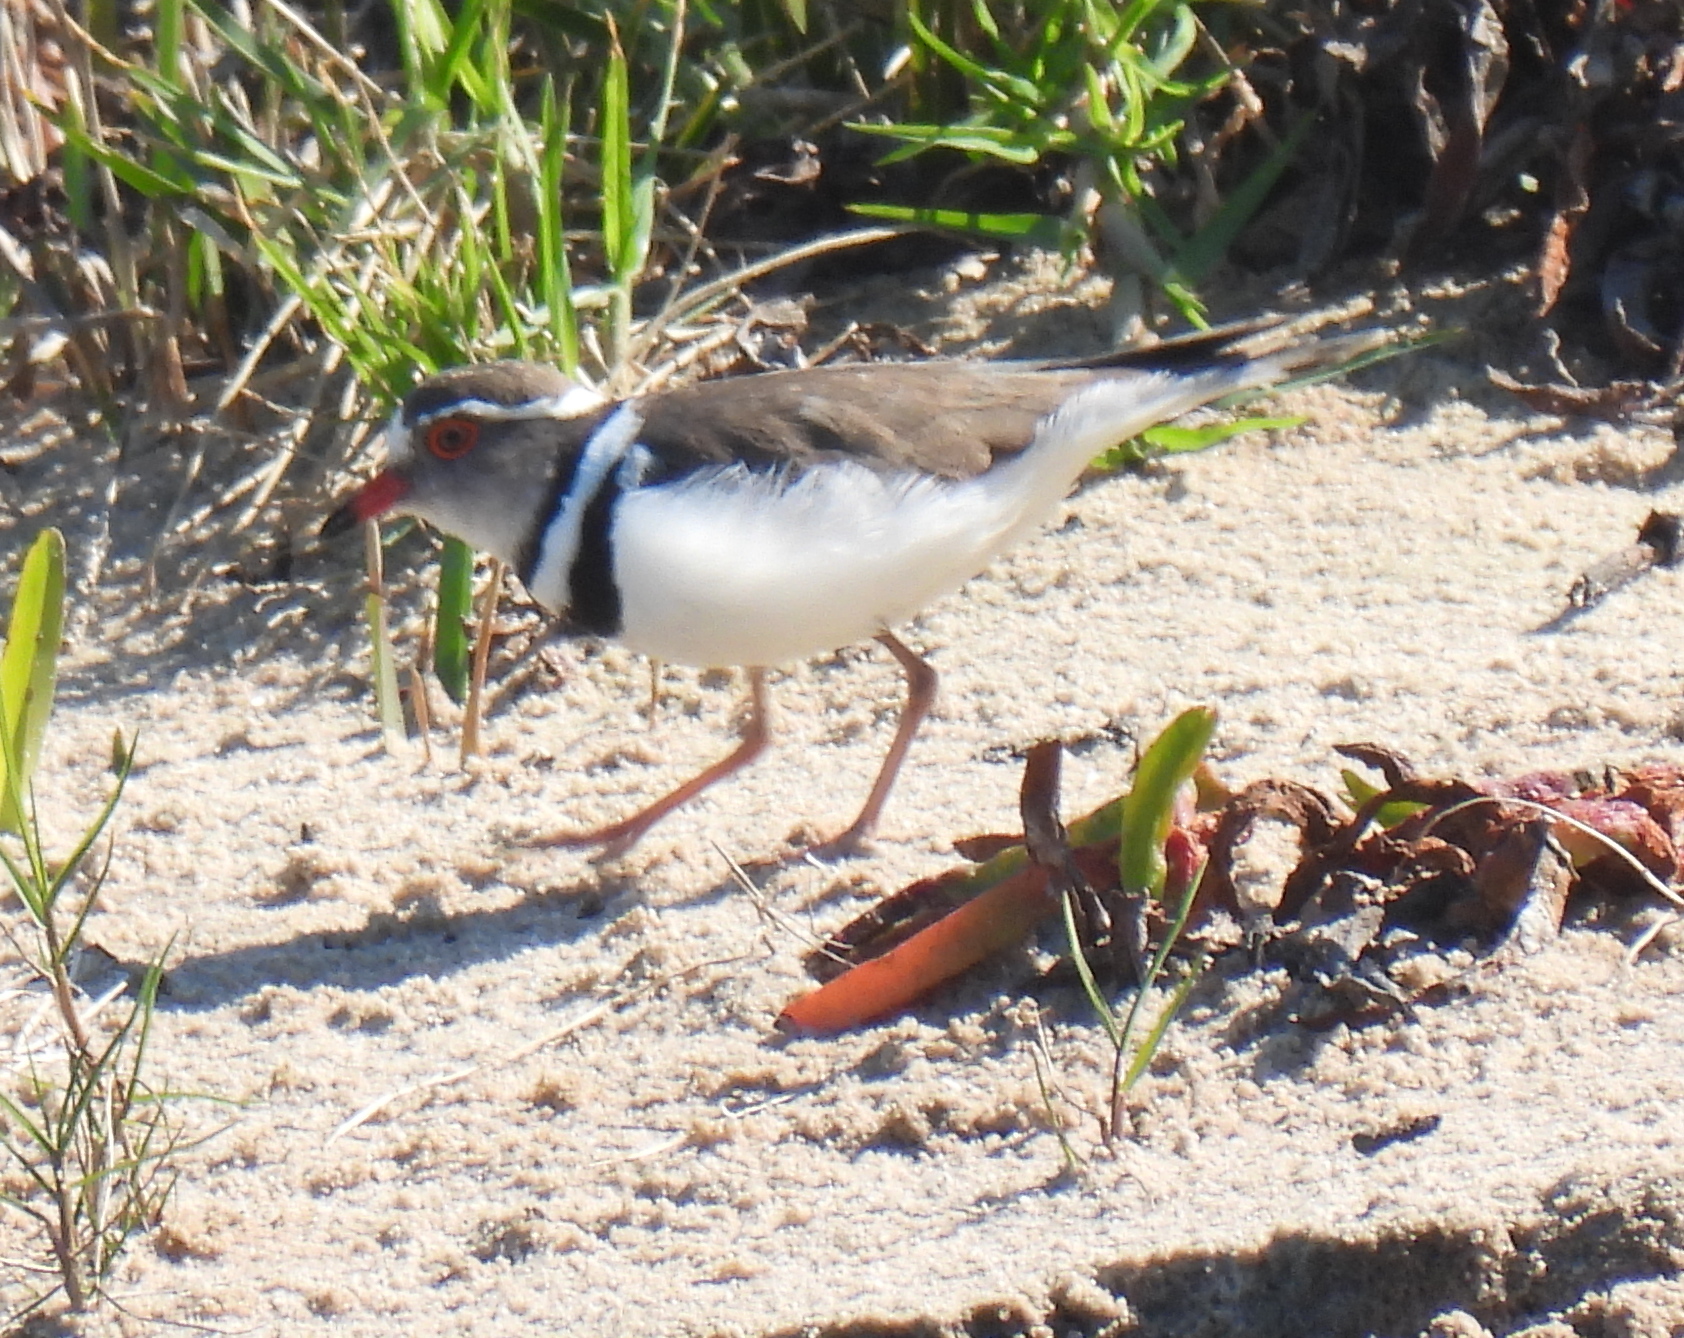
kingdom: Animalia
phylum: Chordata
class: Aves
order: Charadriiformes
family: Charadriidae
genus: Charadrius
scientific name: Charadrius tricollaris
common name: Three-banded plover
